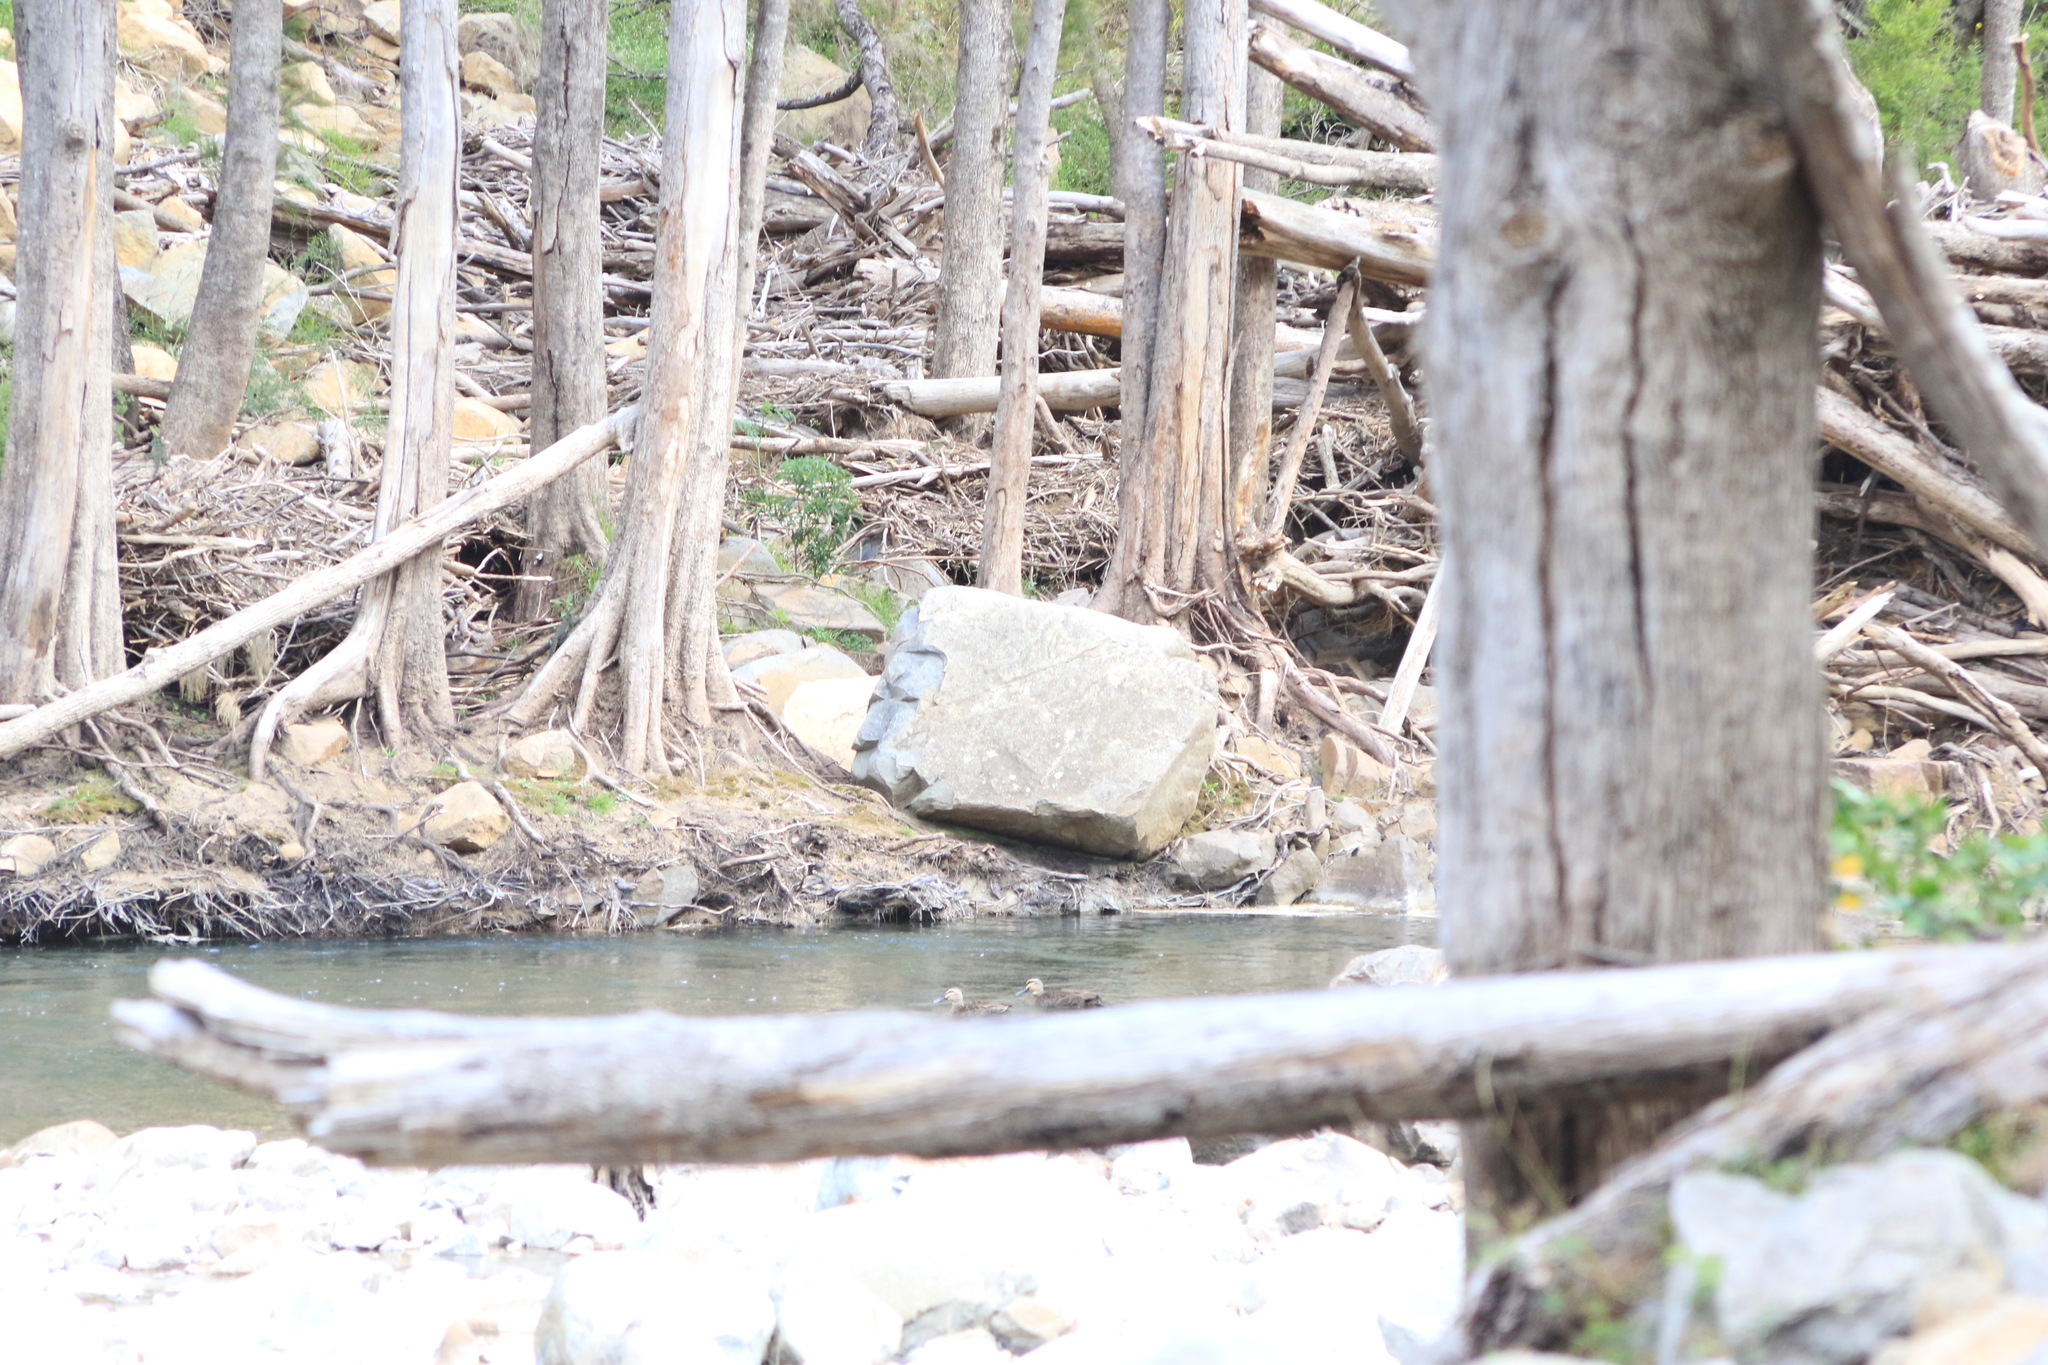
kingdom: Animalia
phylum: Chordata
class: Aves
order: Anseriformes
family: Anatidae
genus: Anas
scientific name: Anas superciliosa
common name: Pacific black duck
